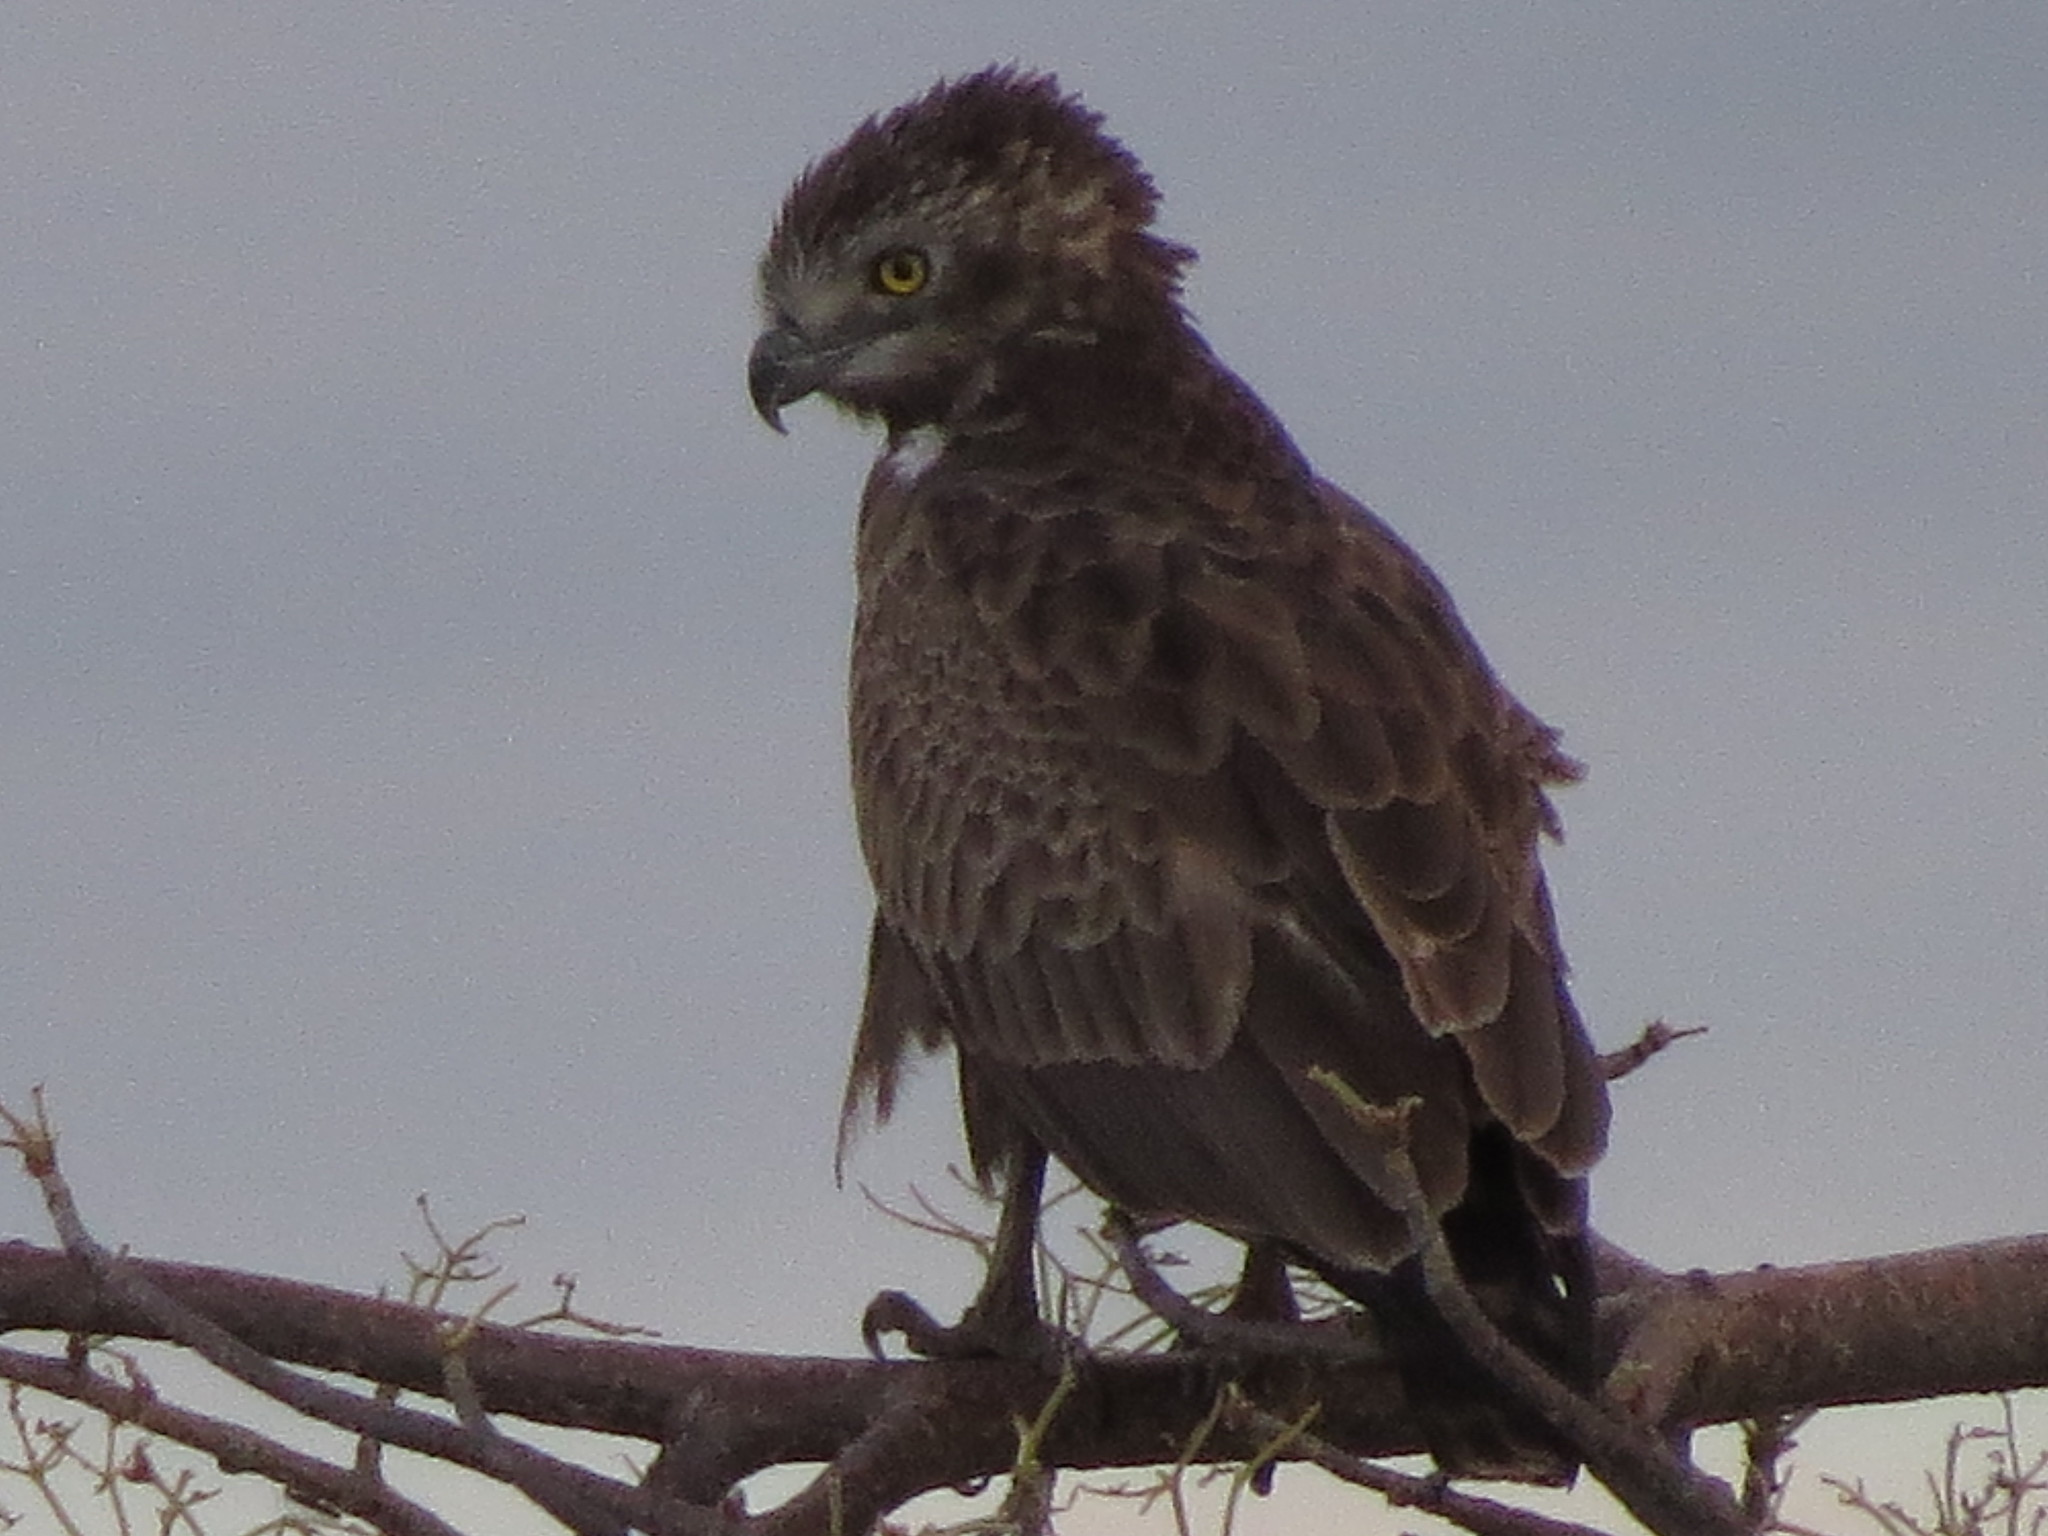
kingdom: Animalia
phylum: Chordata
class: Aves
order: Accipitriformes
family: Accipitridae
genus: Circaetus
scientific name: Circaetus cinereus
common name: Brown snake eagle
